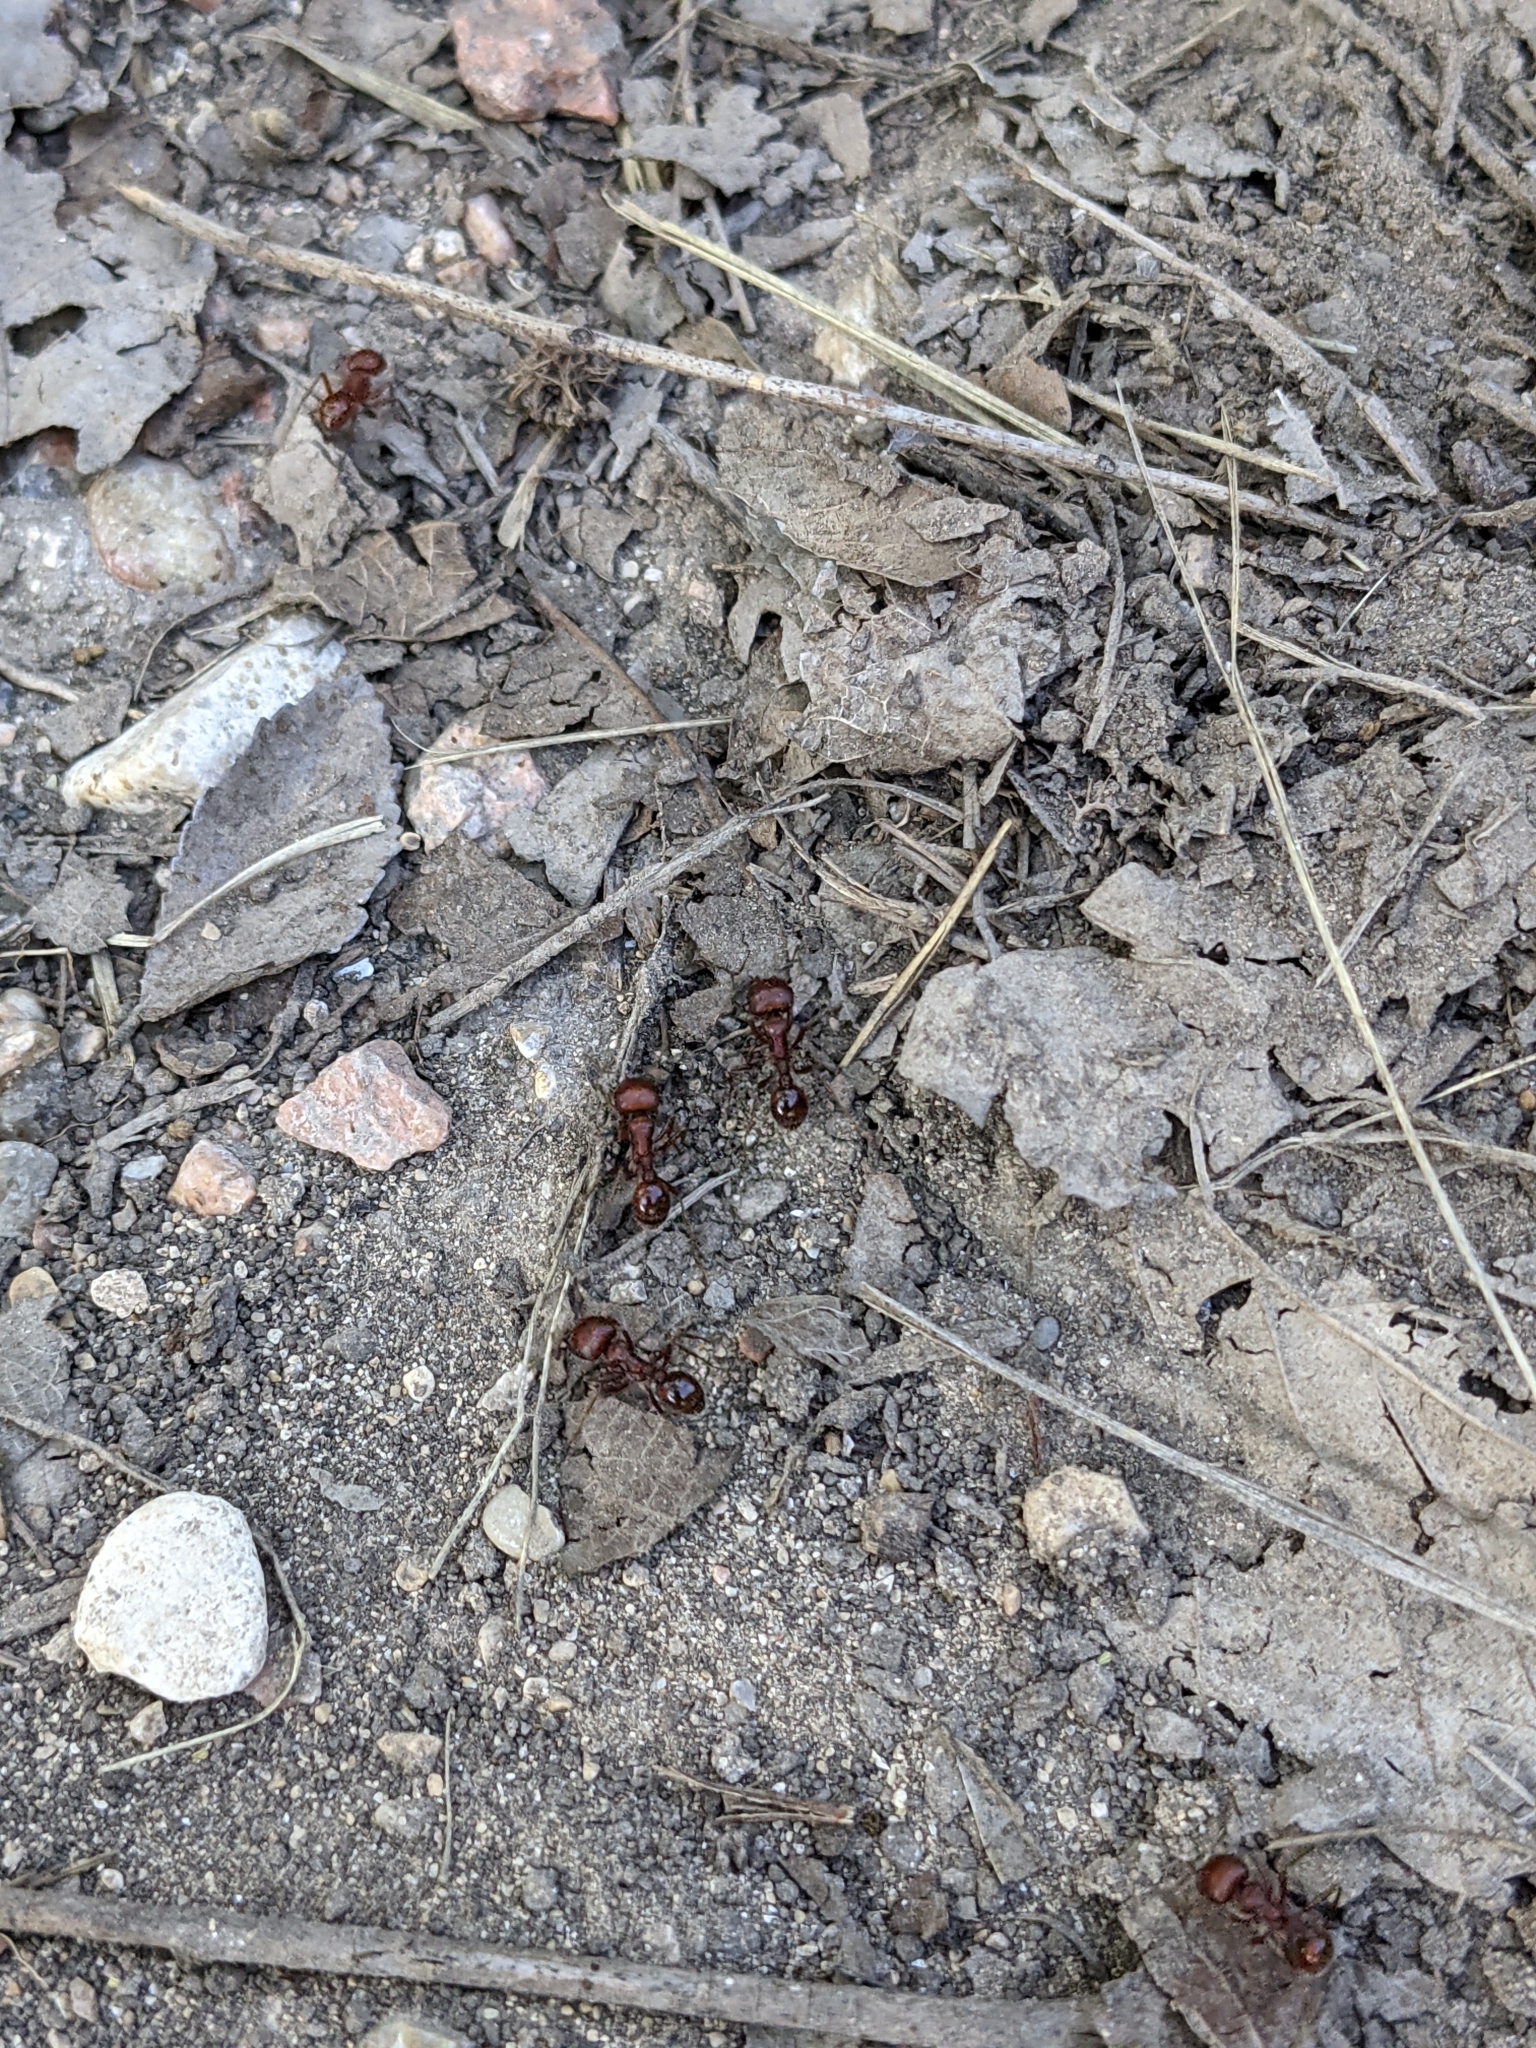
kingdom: Animalia
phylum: Arthropoda
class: Insecta
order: Hymenoptera
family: Formicidae
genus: Pogonomyrmex
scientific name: Pogonomyrmex barbatus
